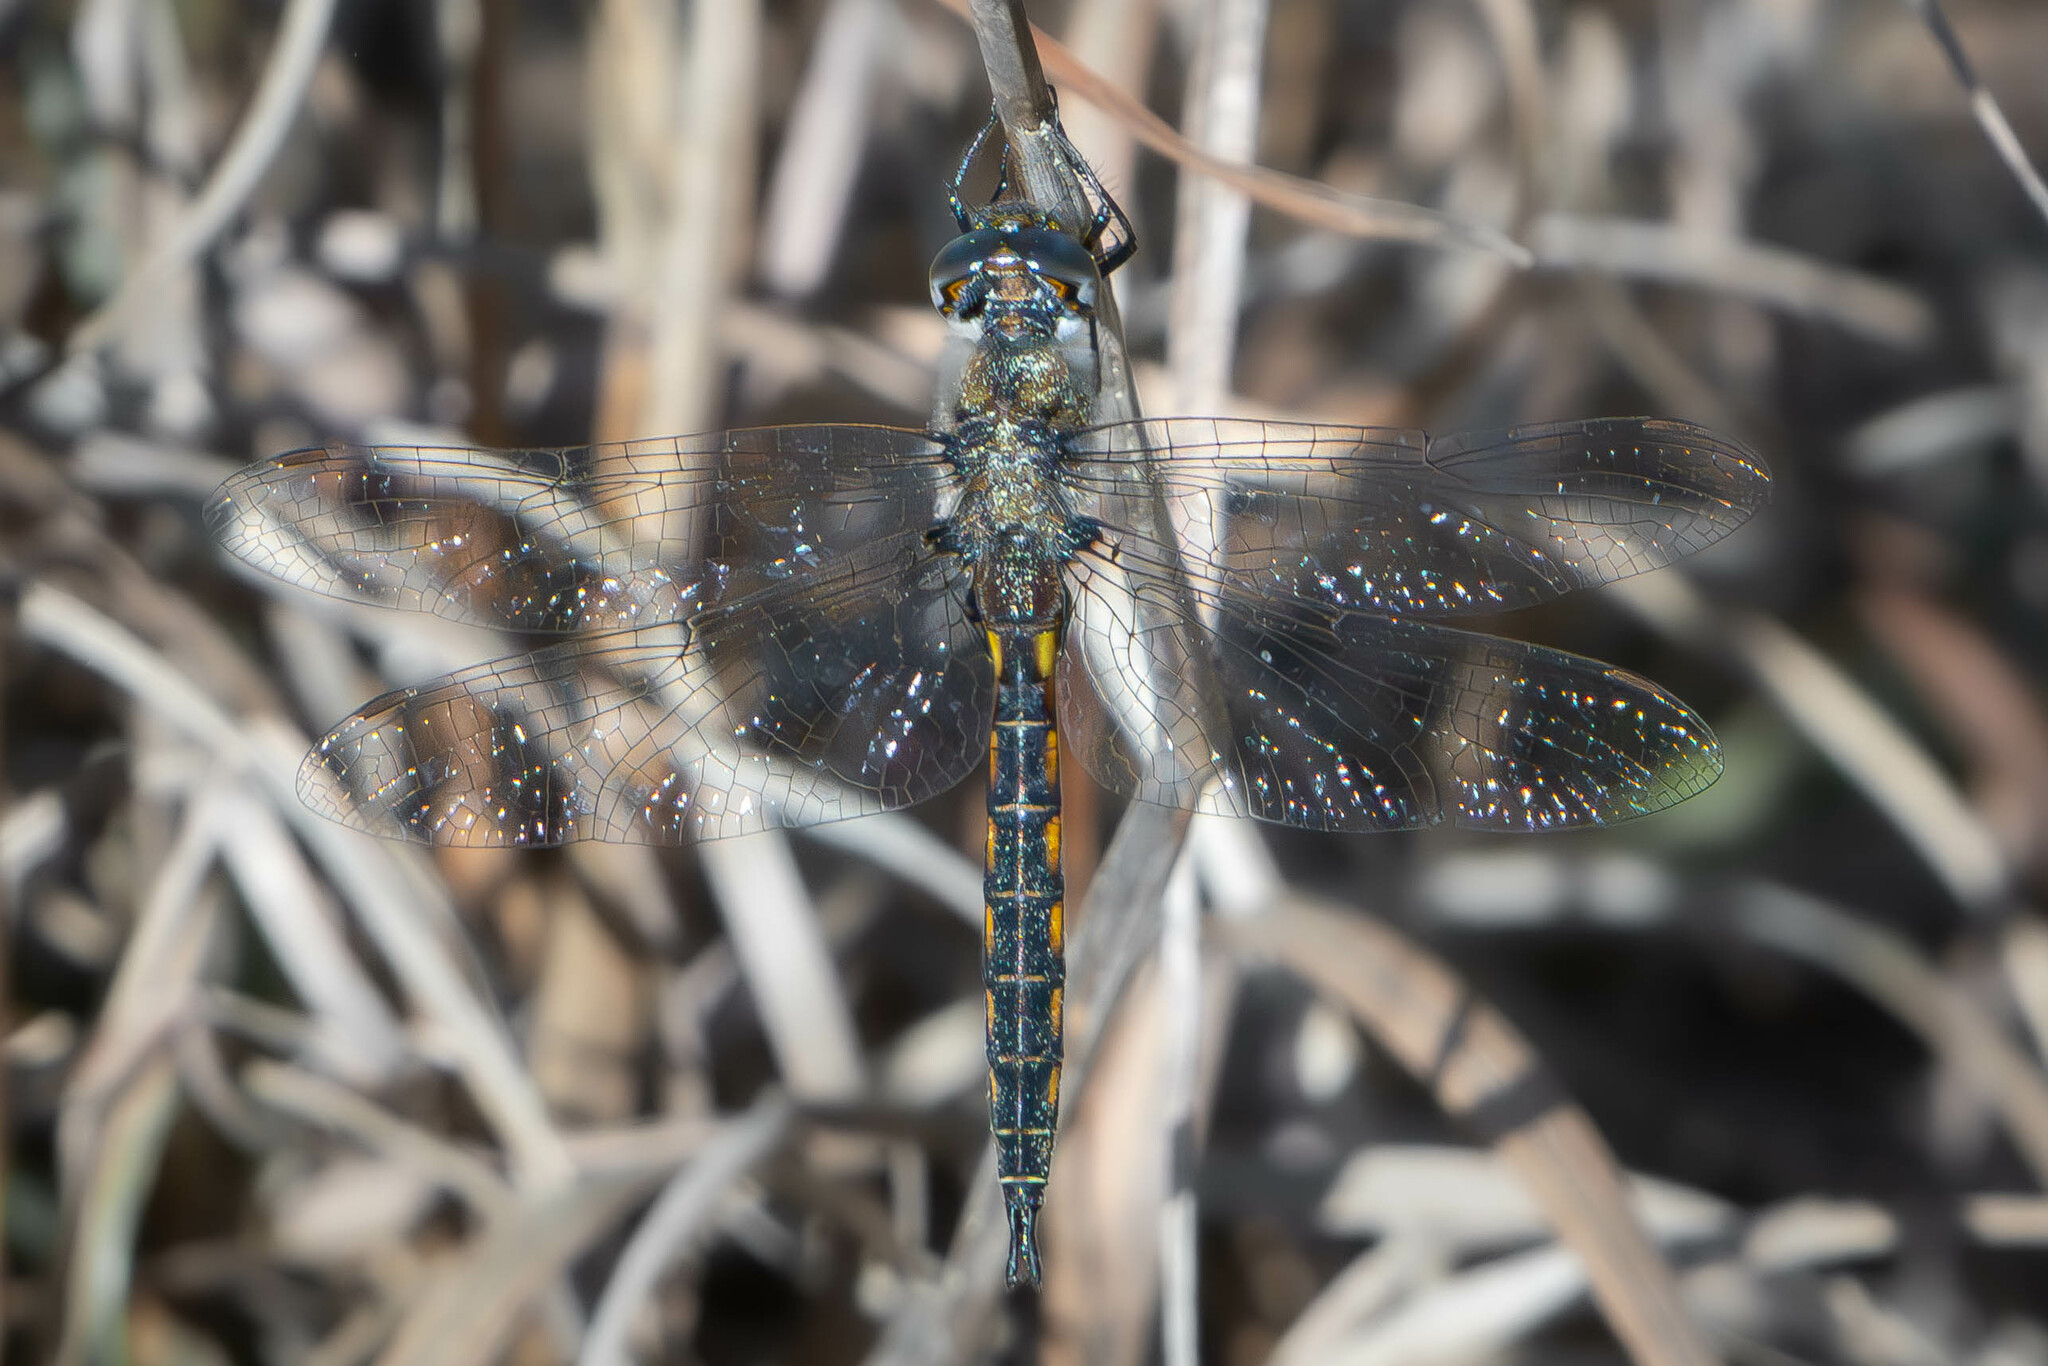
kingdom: Animalia
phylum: Arthropoda
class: Insecta
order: Odonata
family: Corduliidae
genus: Epitheca
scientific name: Epitheca costalis
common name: Slender baskettail
